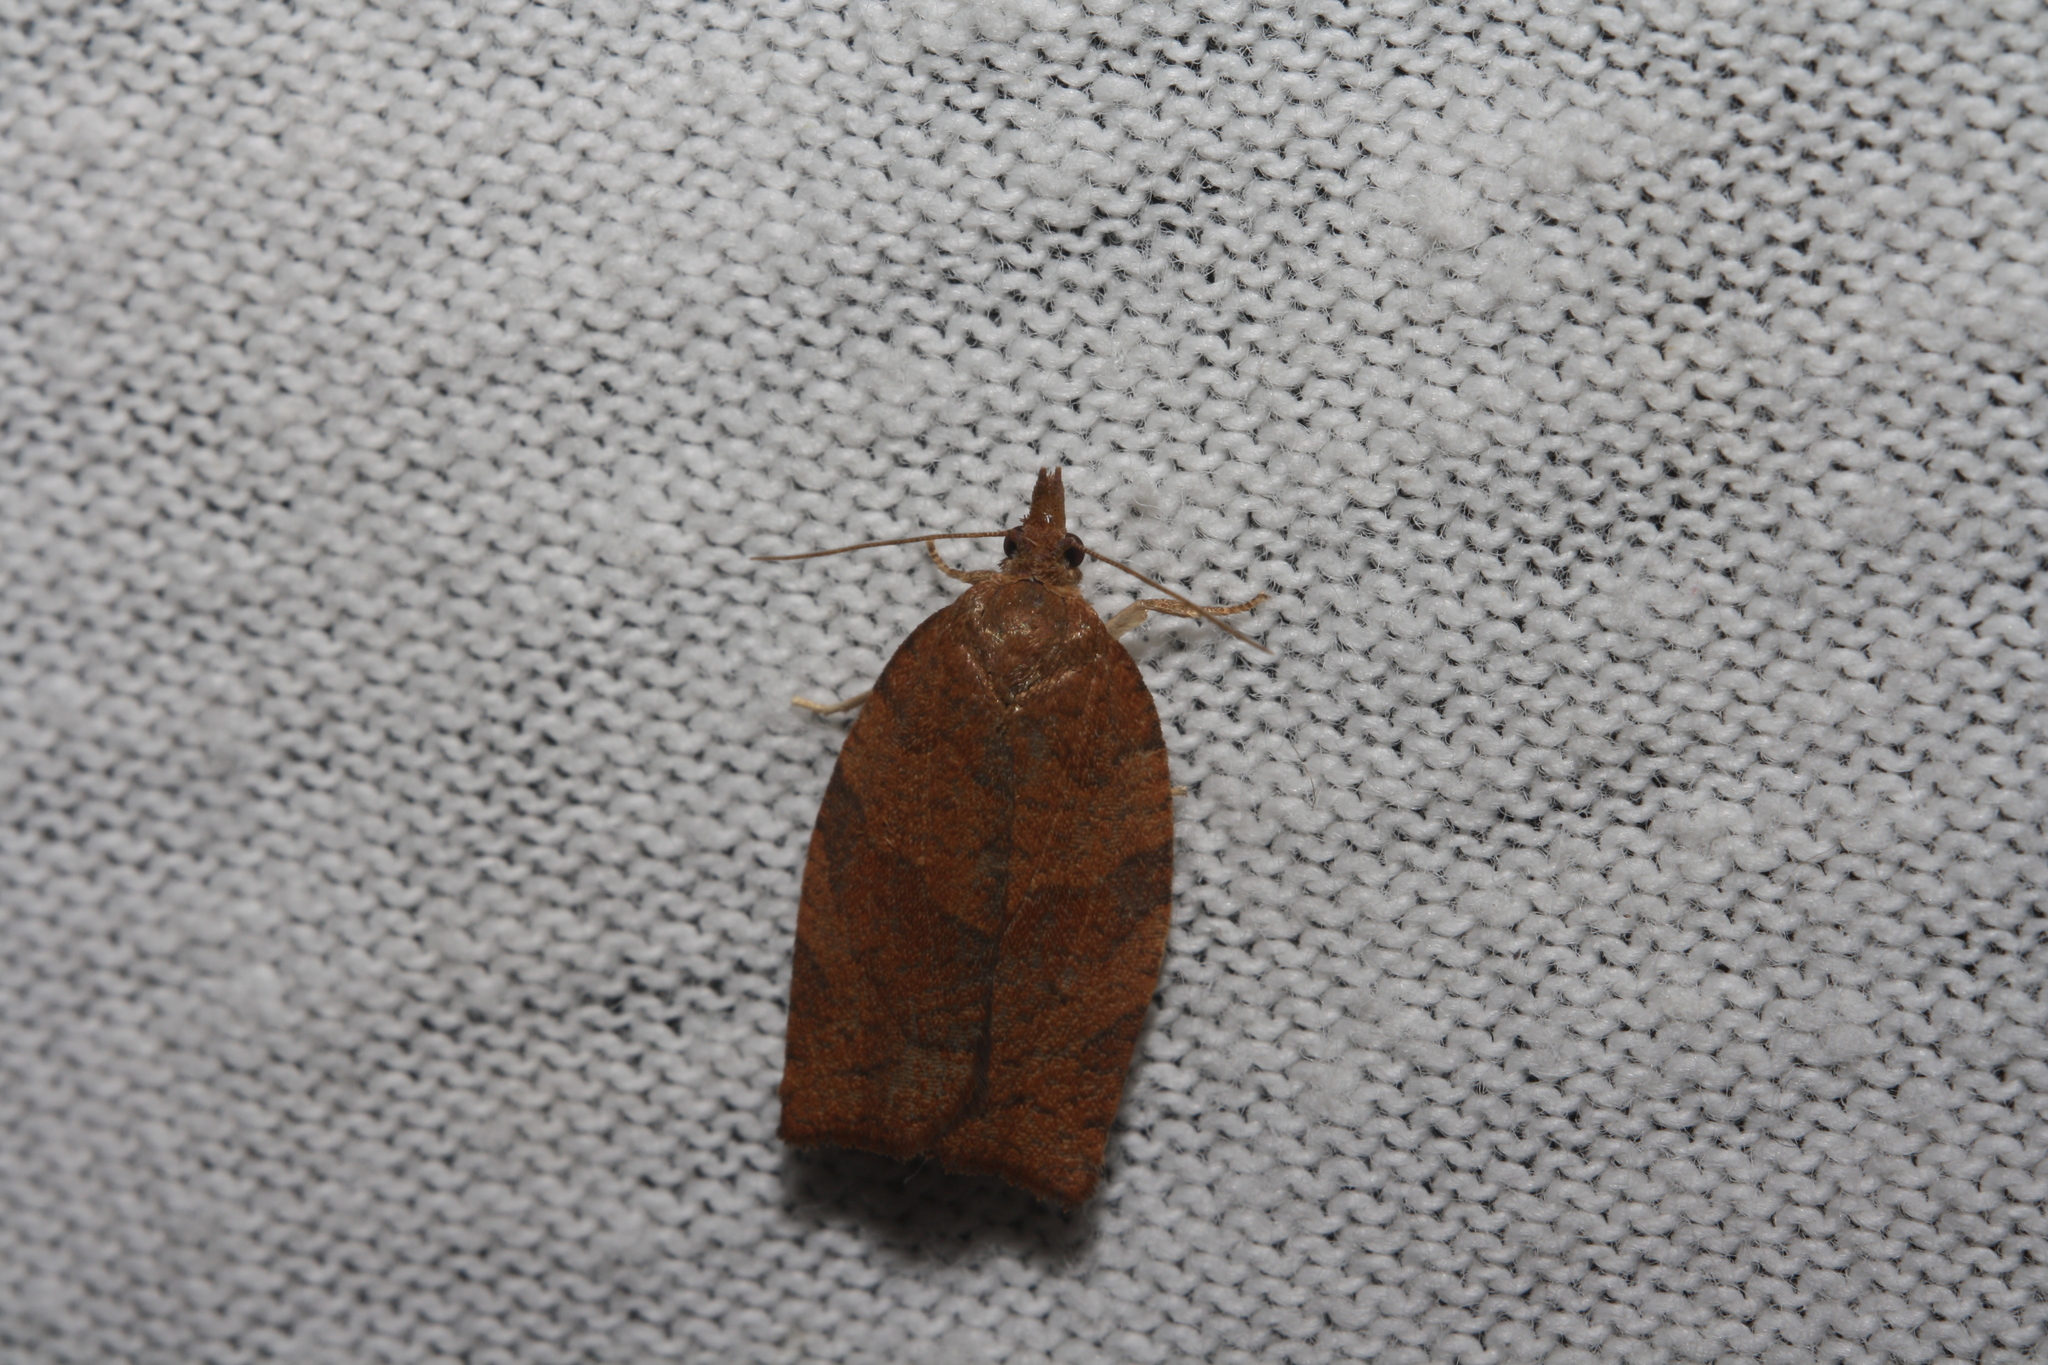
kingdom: Animalia
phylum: Arthropoda
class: Insecta
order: Lepidoptera
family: Tortricidae
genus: Pandemis
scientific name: Pandemis heparana
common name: Dark fruit-tree tortrix
